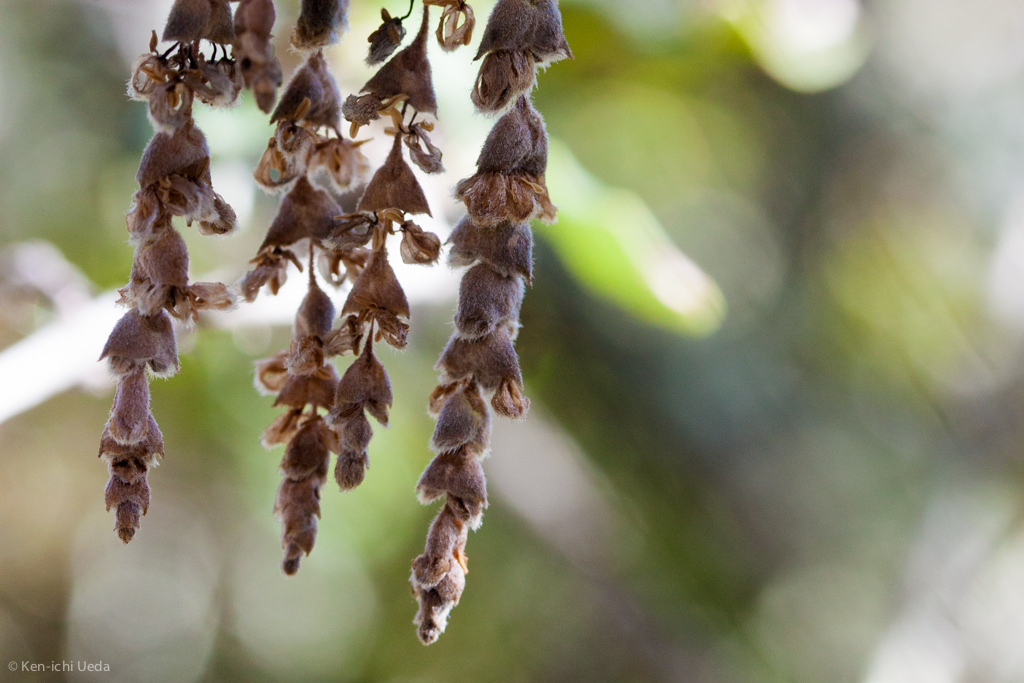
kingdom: Plantae
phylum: Tracheophyta
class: Magnoliopsida
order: Garryales
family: Garryaceae
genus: Garrya
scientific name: Garrya elliptica
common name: Silk-tassel
